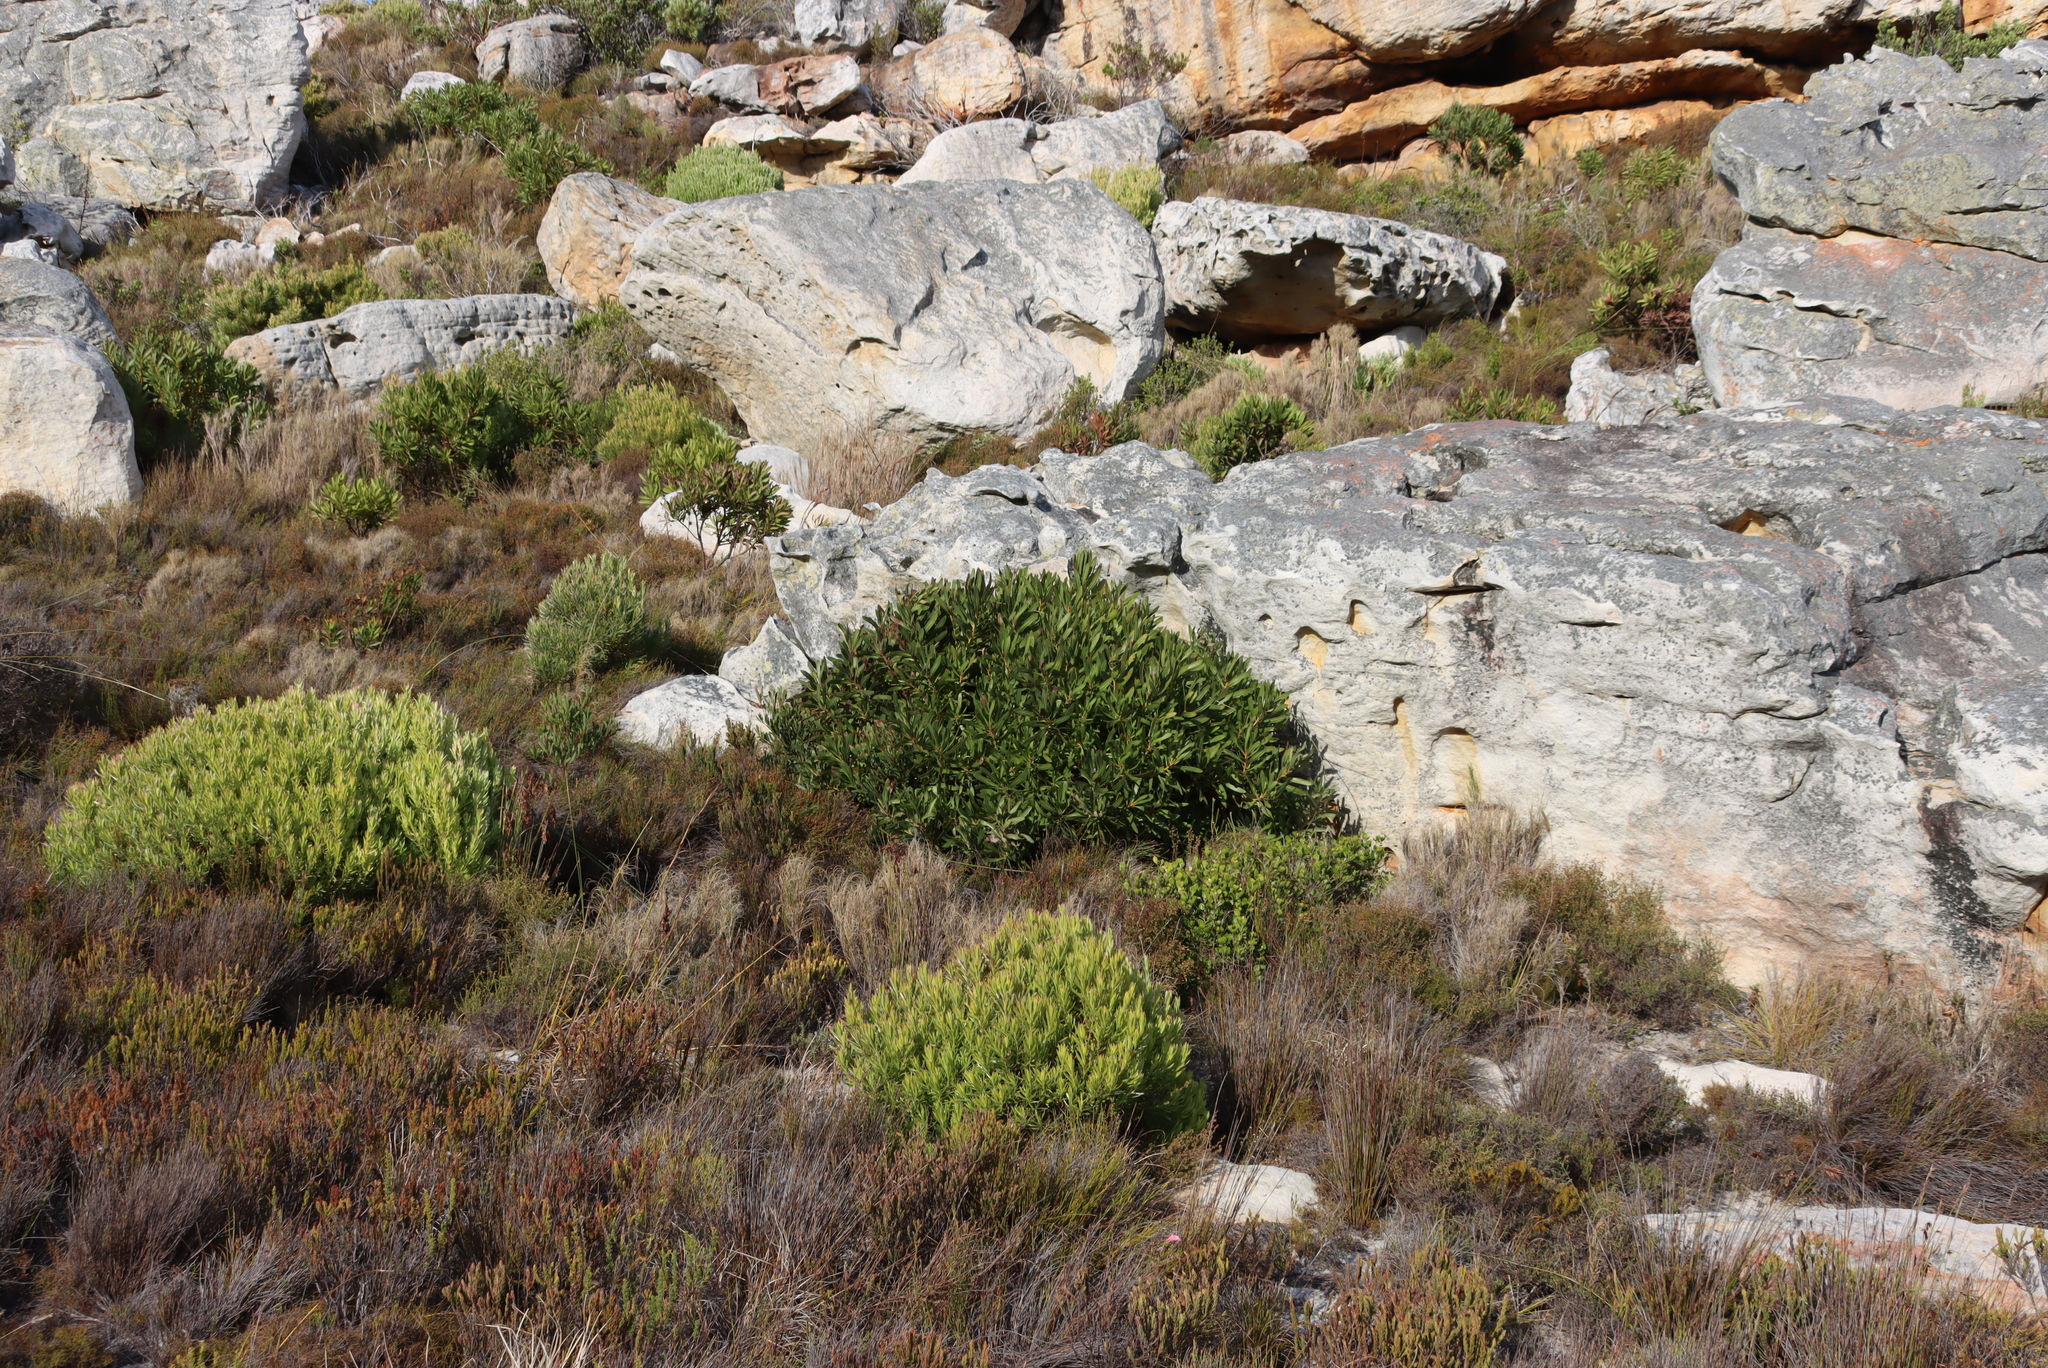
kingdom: Plantae
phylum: Tracheophyta
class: Magnoliopsida
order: Proteales
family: Proteaceae
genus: Leucadendron
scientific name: Leucadendron xanthoconus
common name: Sickle-leaf conebush
